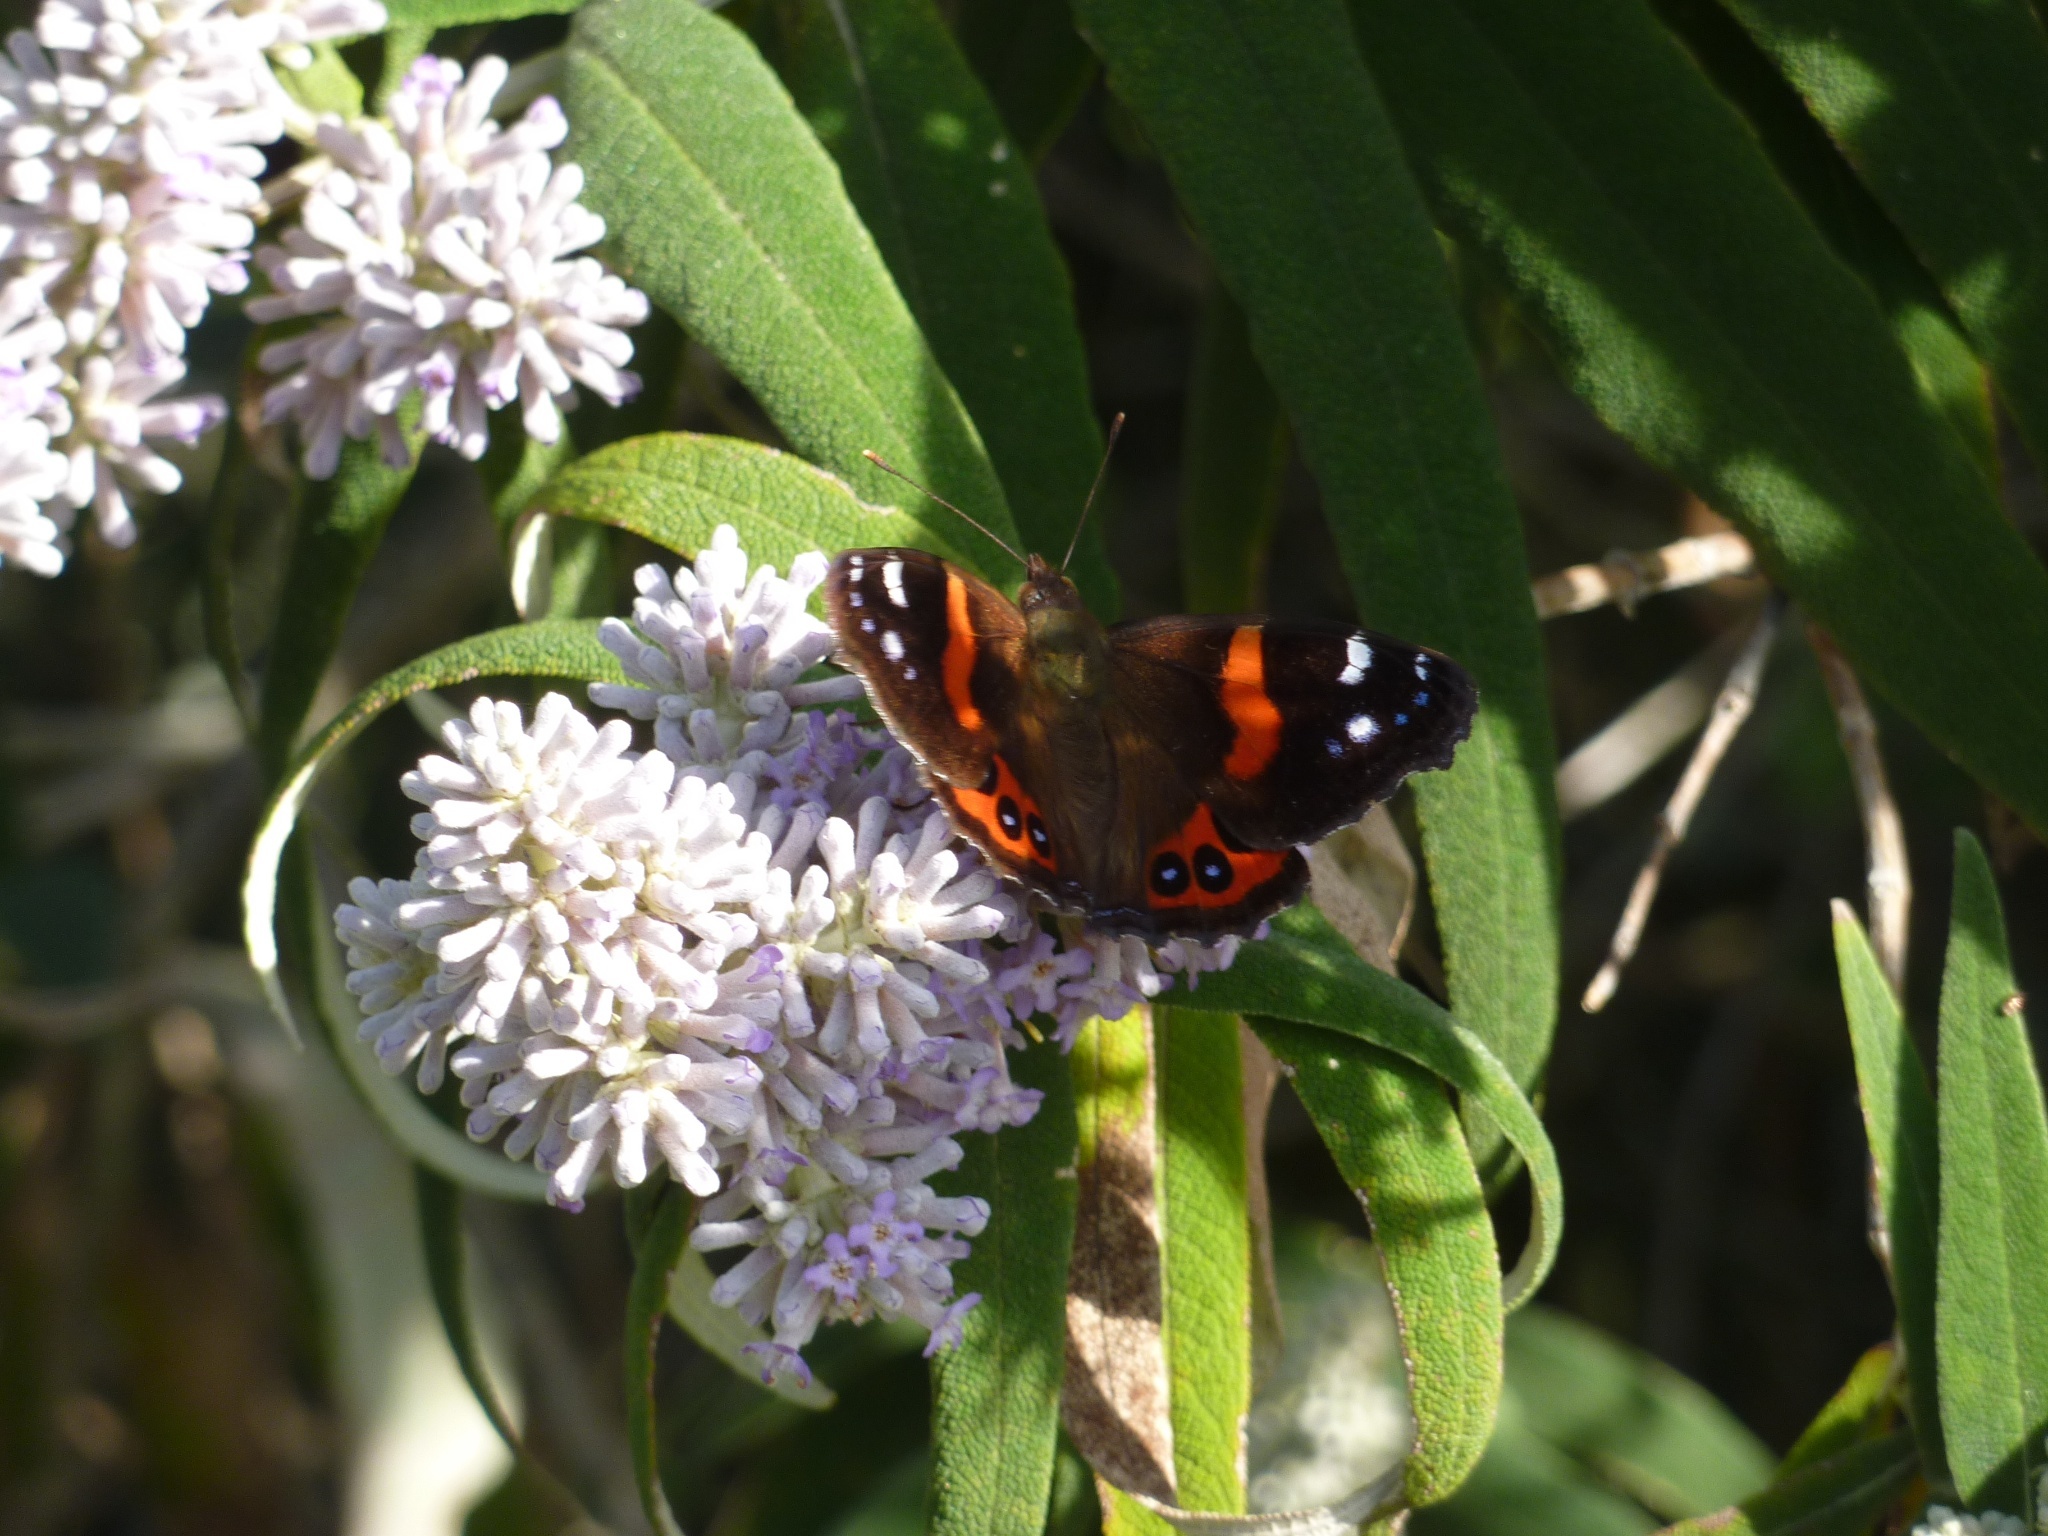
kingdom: Animalia
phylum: Arthropoda
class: Insecta
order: Lepidoptera
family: Nymphalidae
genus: Vanessa
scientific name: Vanessa gonerilla
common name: New zealand red admiral
